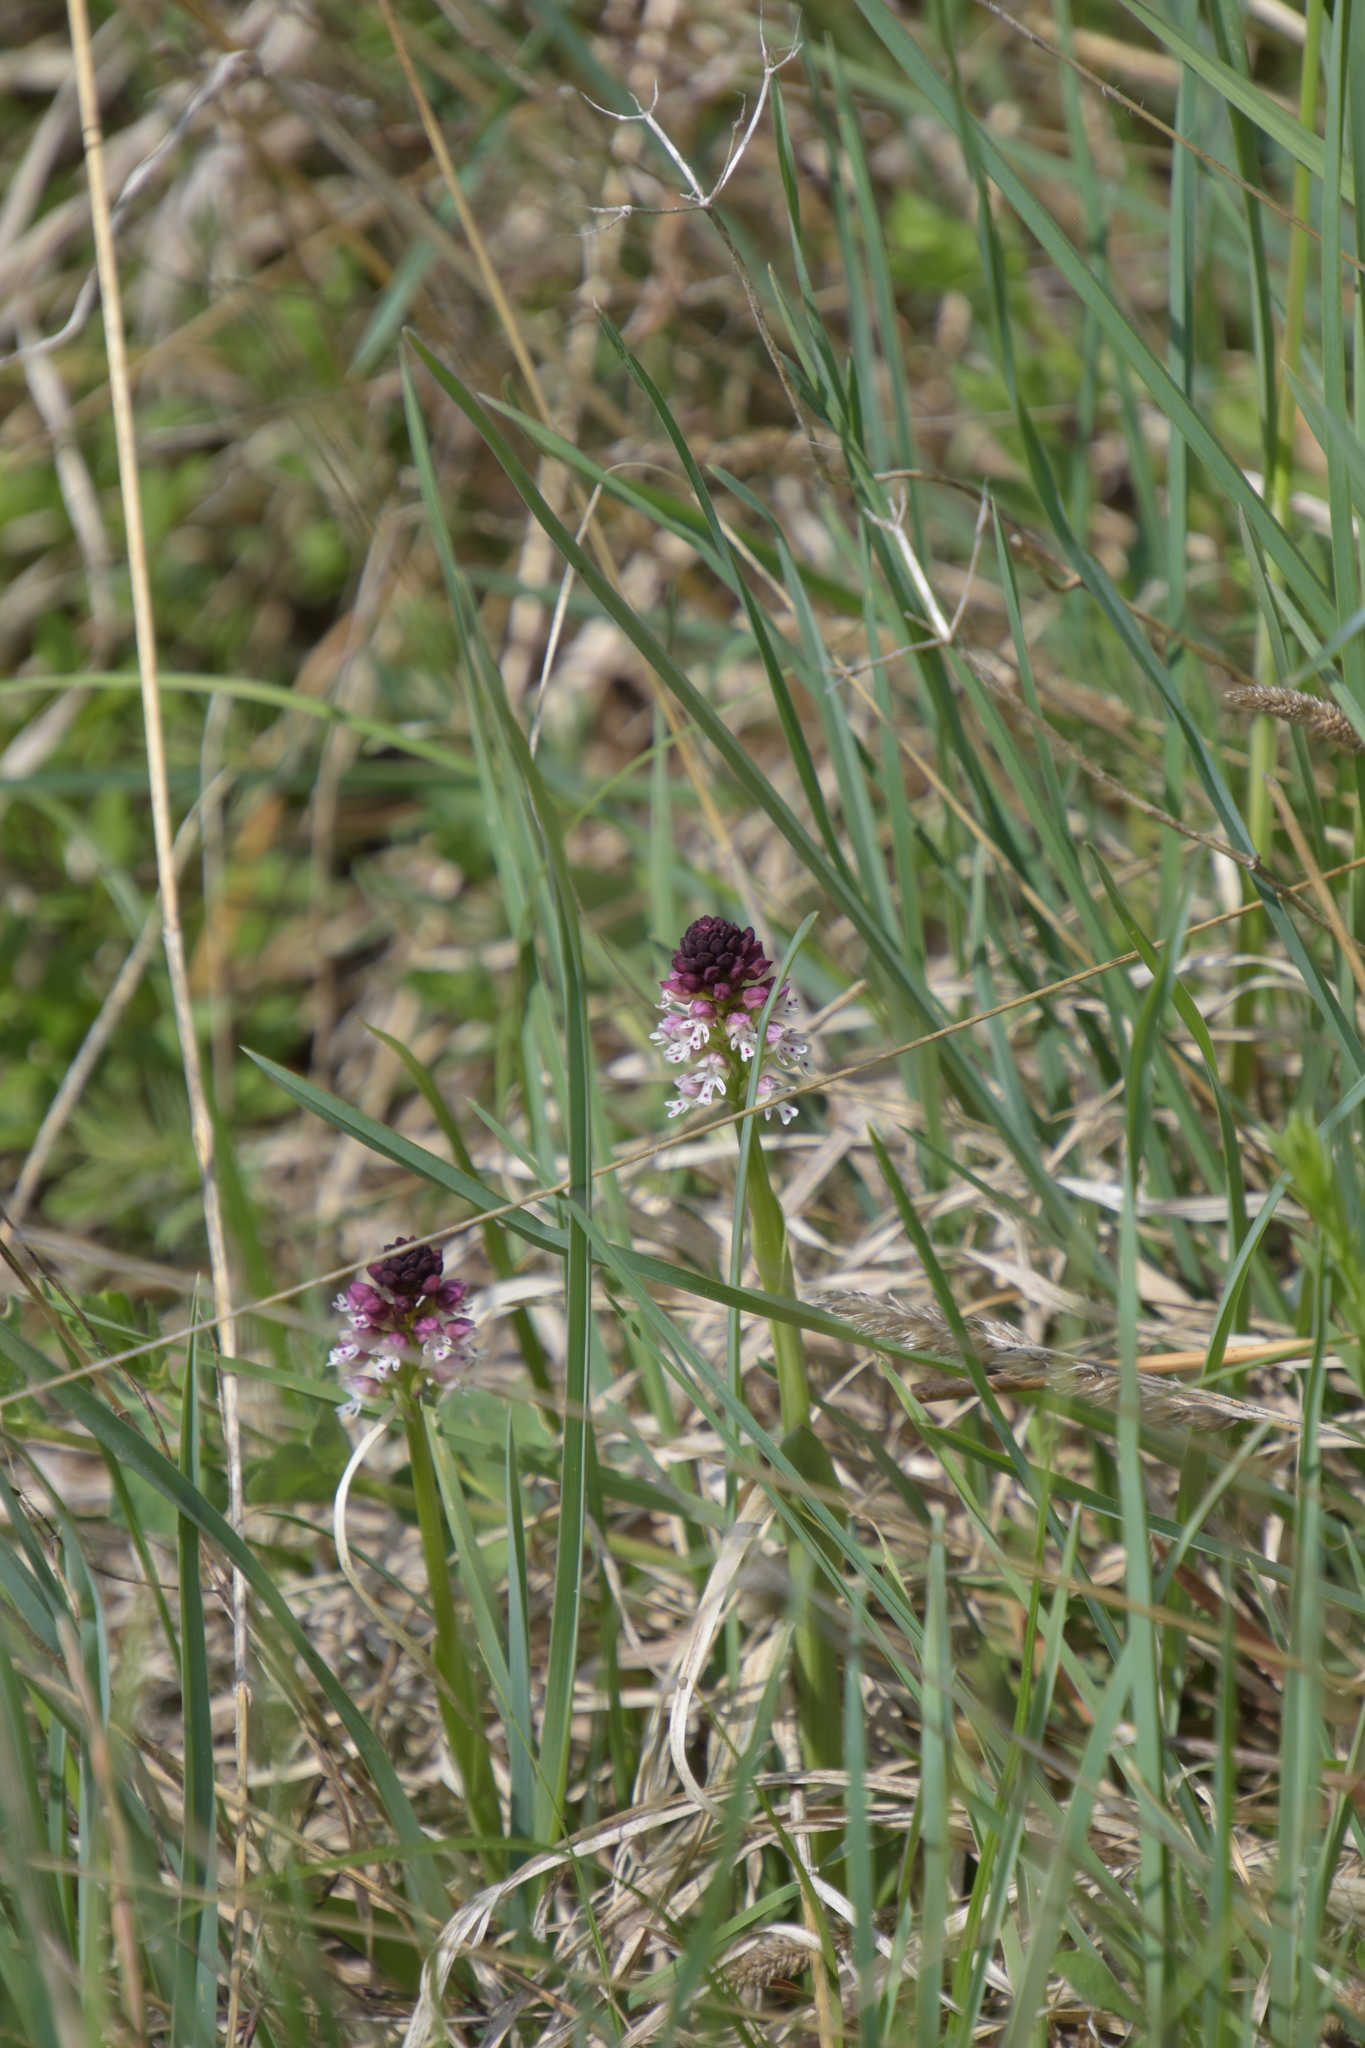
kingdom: Plantae
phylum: Tracheophyta
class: Liliopsida
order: Asparagales
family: Orchidaceae
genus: Neotinea
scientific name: Neotinea ustulata
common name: Burnt orchid
